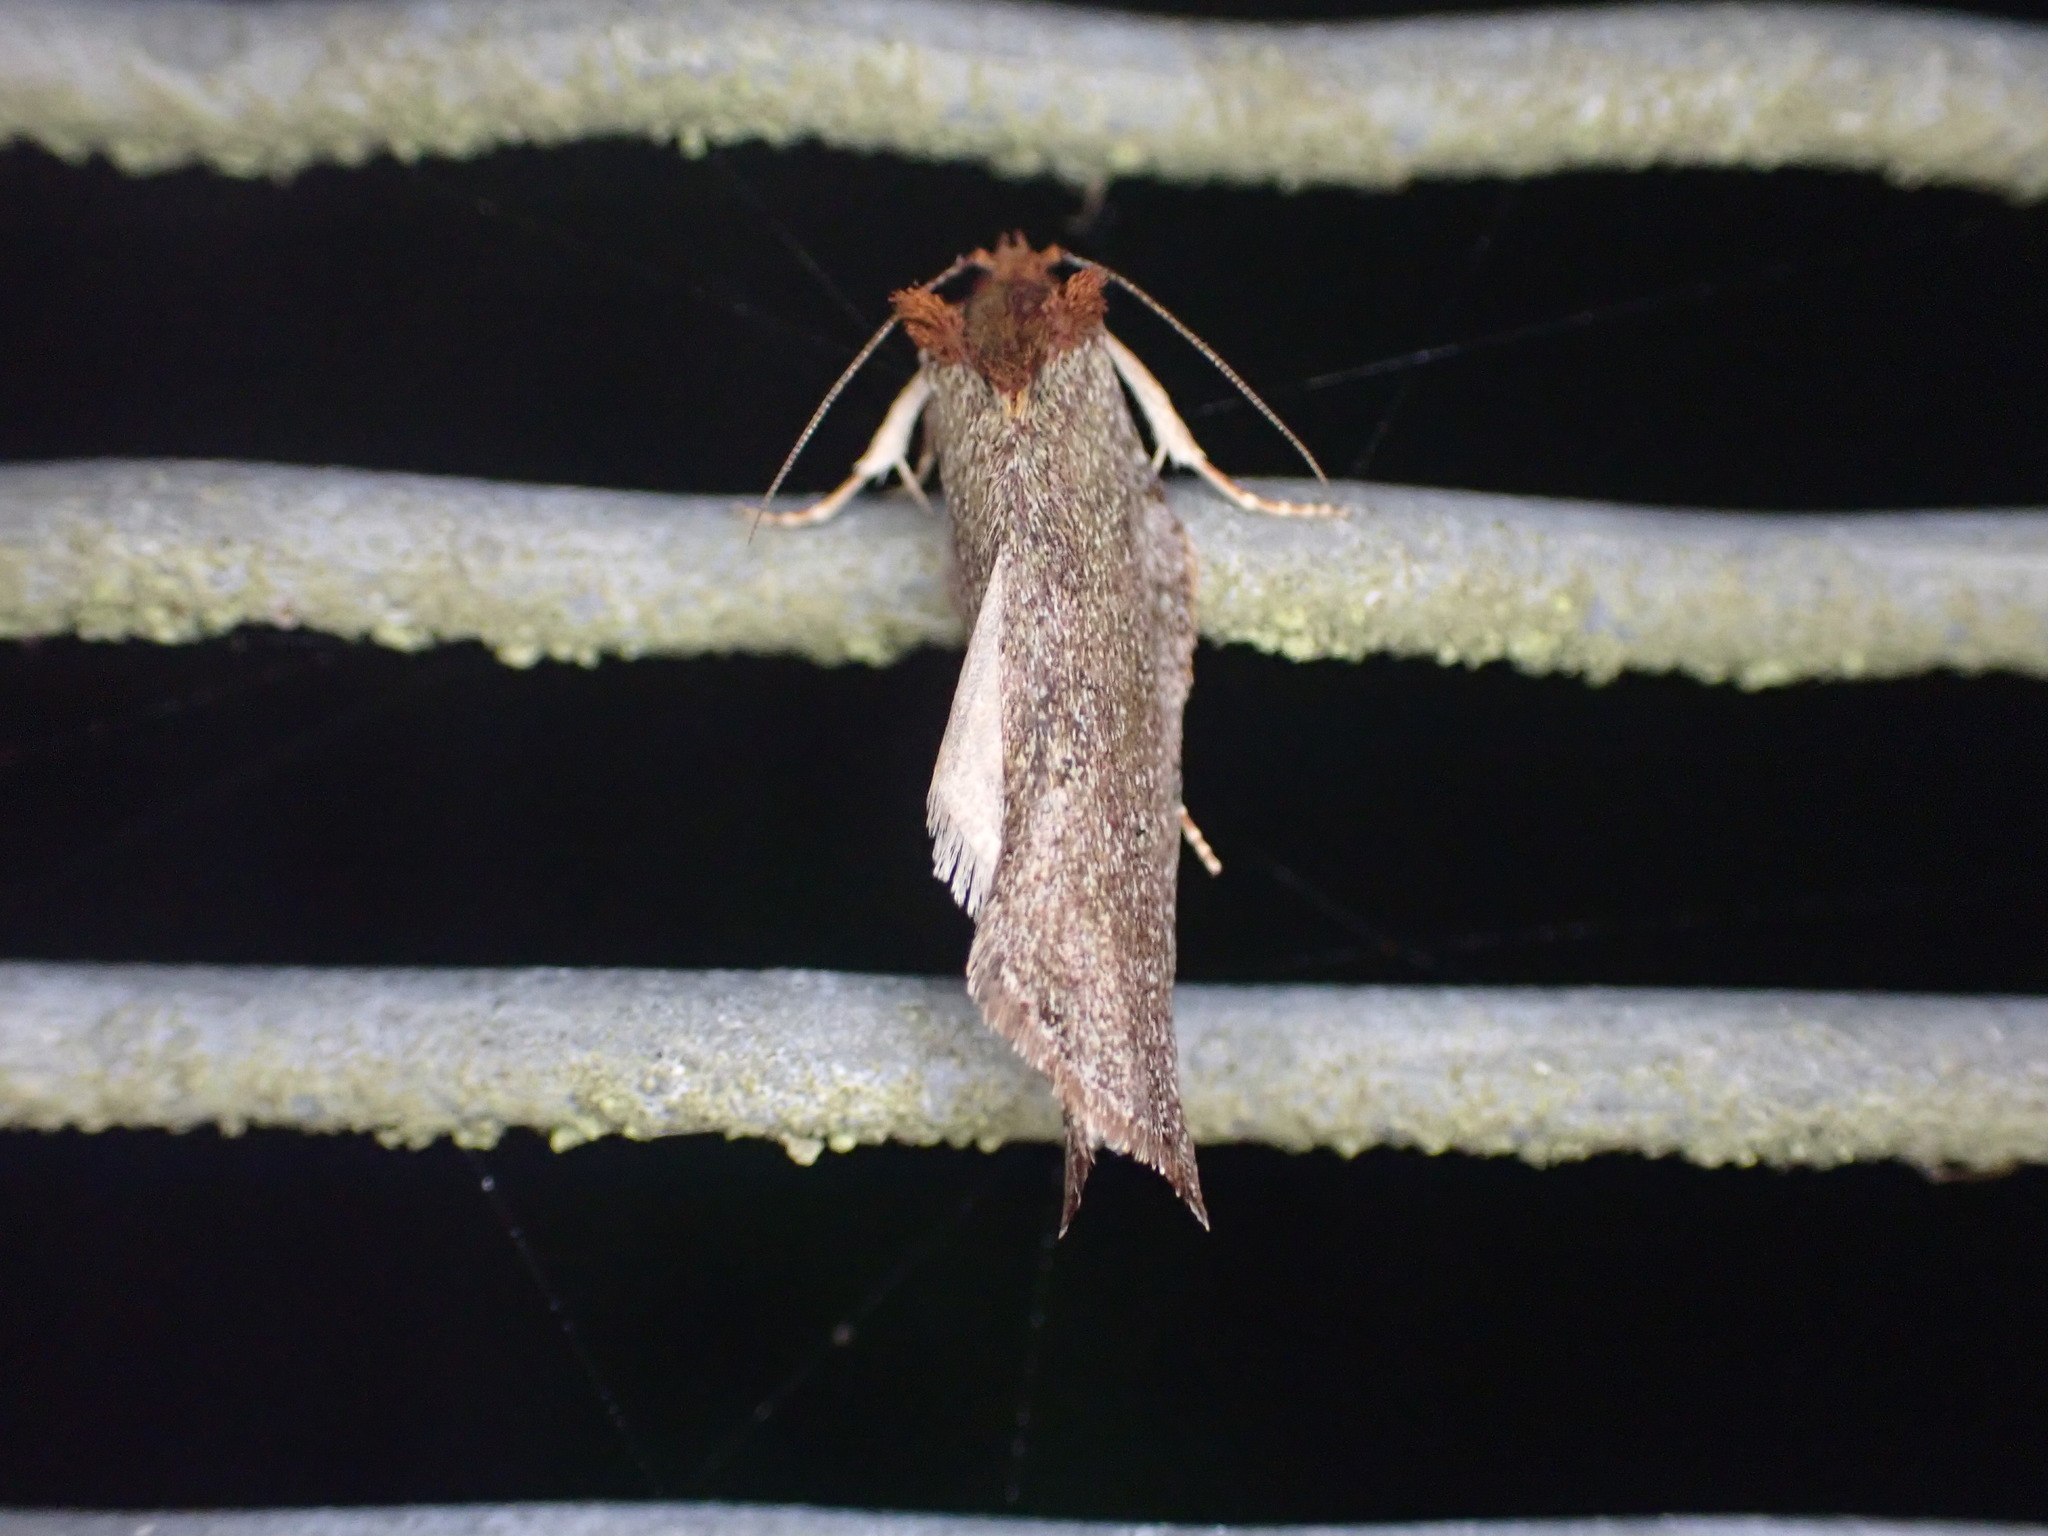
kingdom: Animalia
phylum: Arthropoda
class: Insecta
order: Lepidoptera
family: Tortricidae
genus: Epalxiphora
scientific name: Epalxiphora axenana
